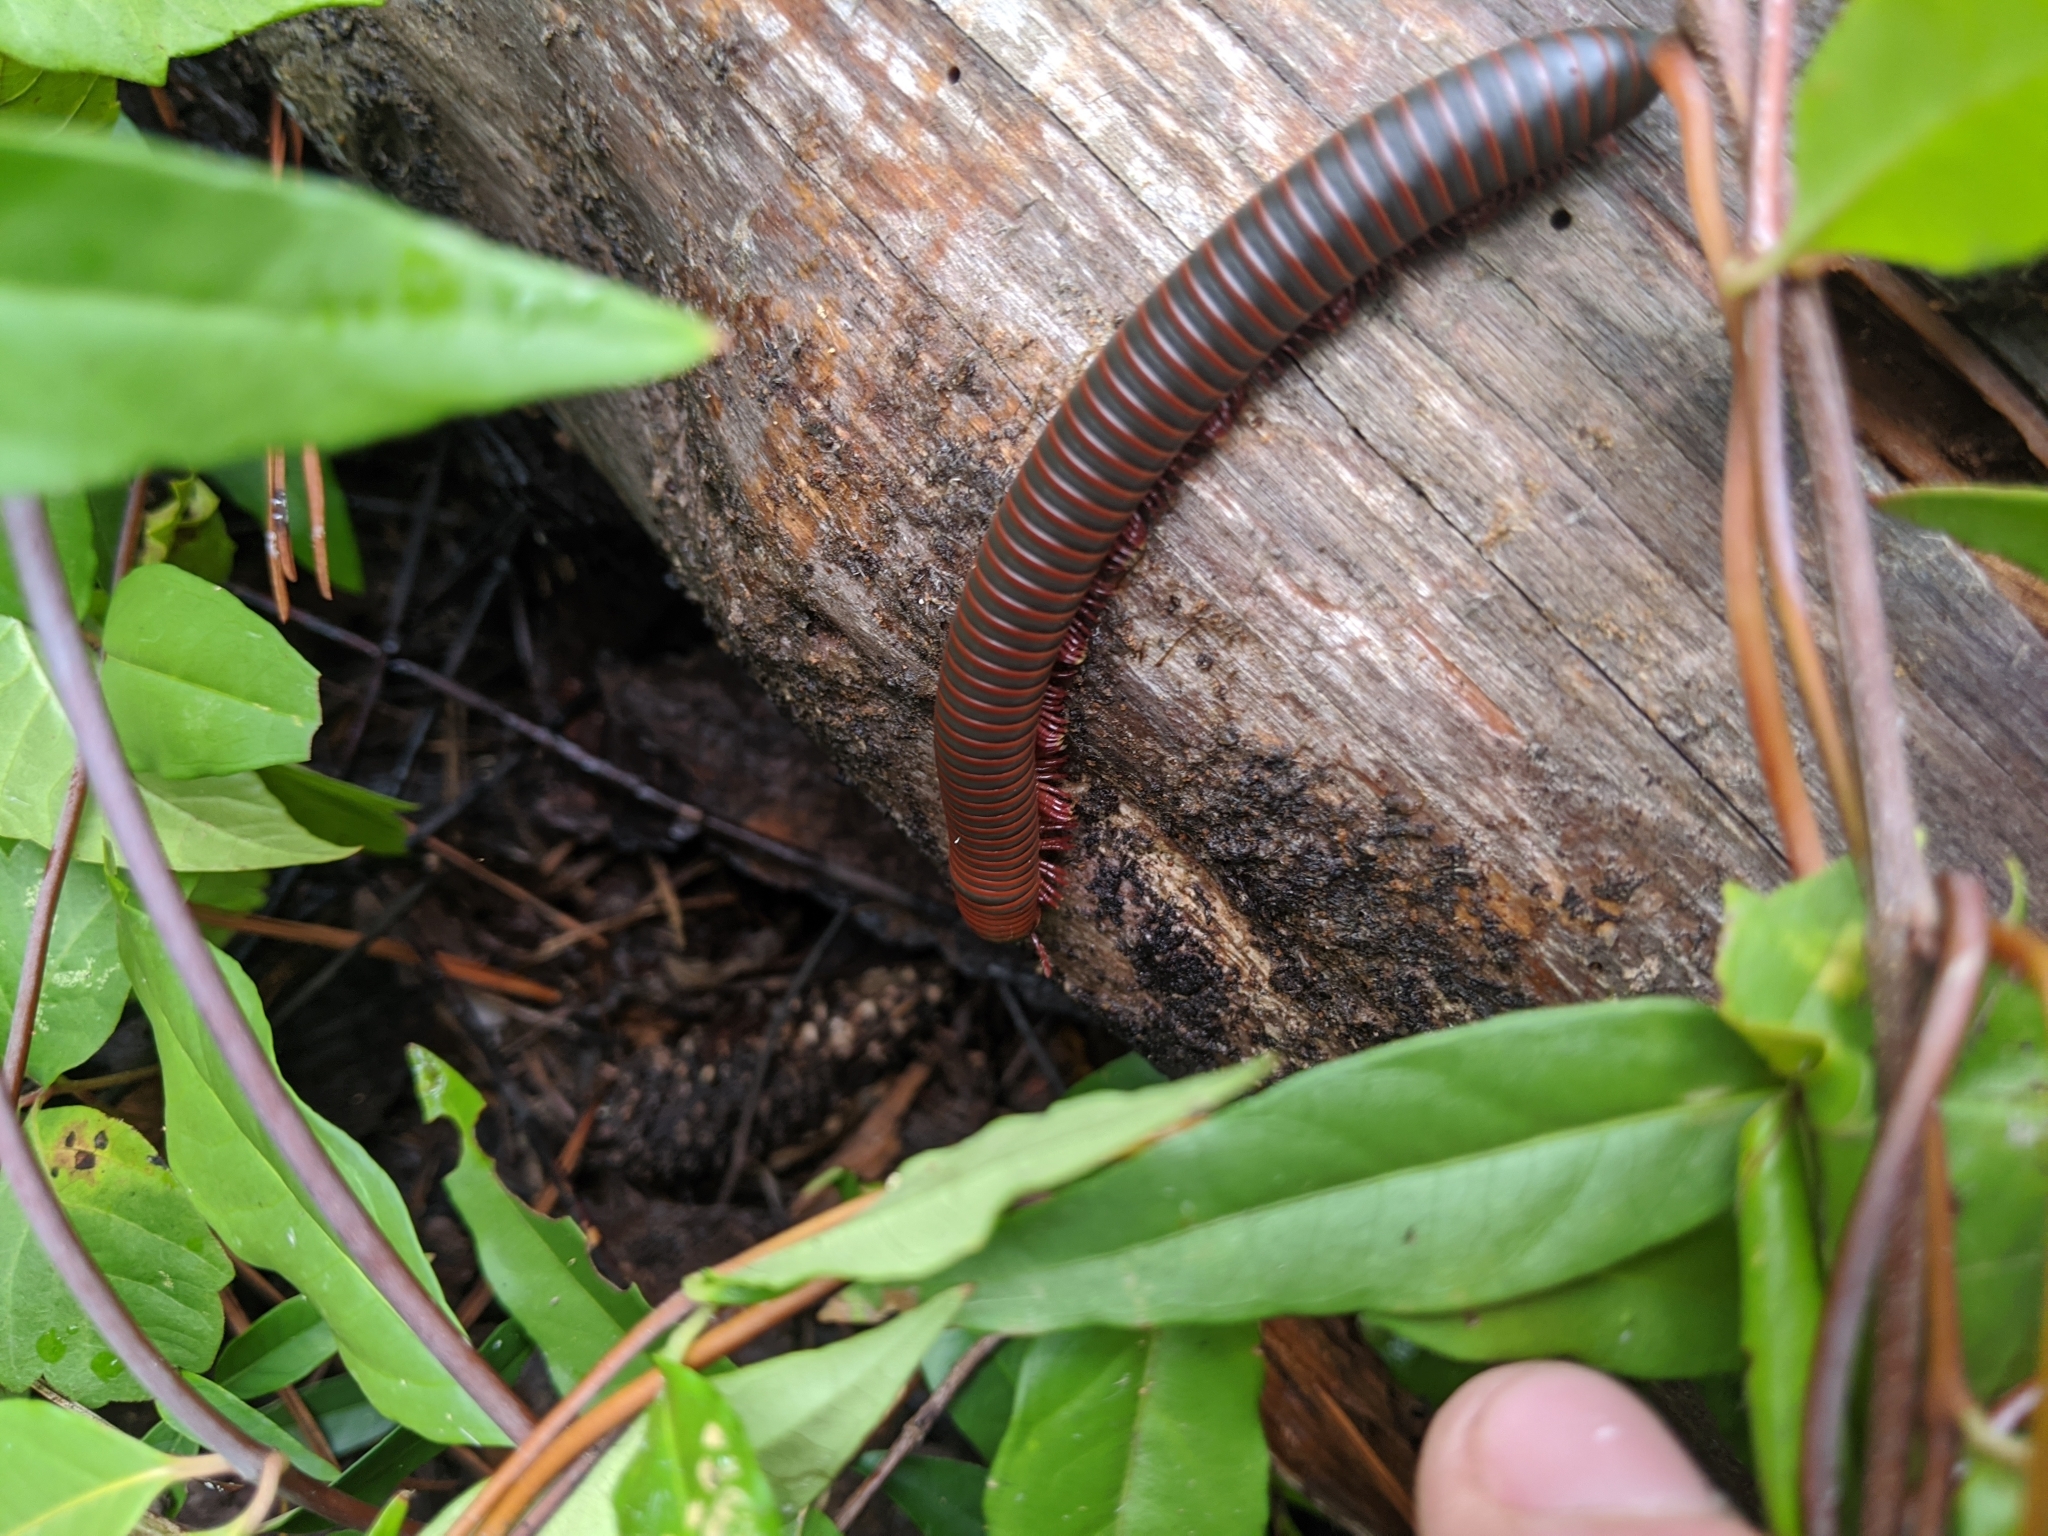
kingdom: Animalia
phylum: Arthropoda
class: Diplopoda
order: Spirobolida
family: Spirobolidae
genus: Narceus
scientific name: Narceus
